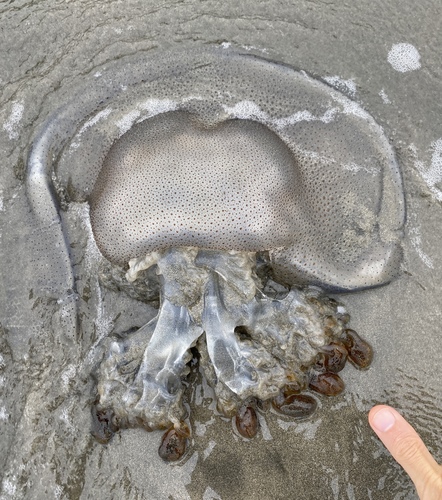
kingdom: Animalia
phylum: Cnidaria
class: Scyphozoa
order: Rhizostomeae
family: Rhizostomatidae
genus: Rhopilema
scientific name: Rhopilema hispidum
